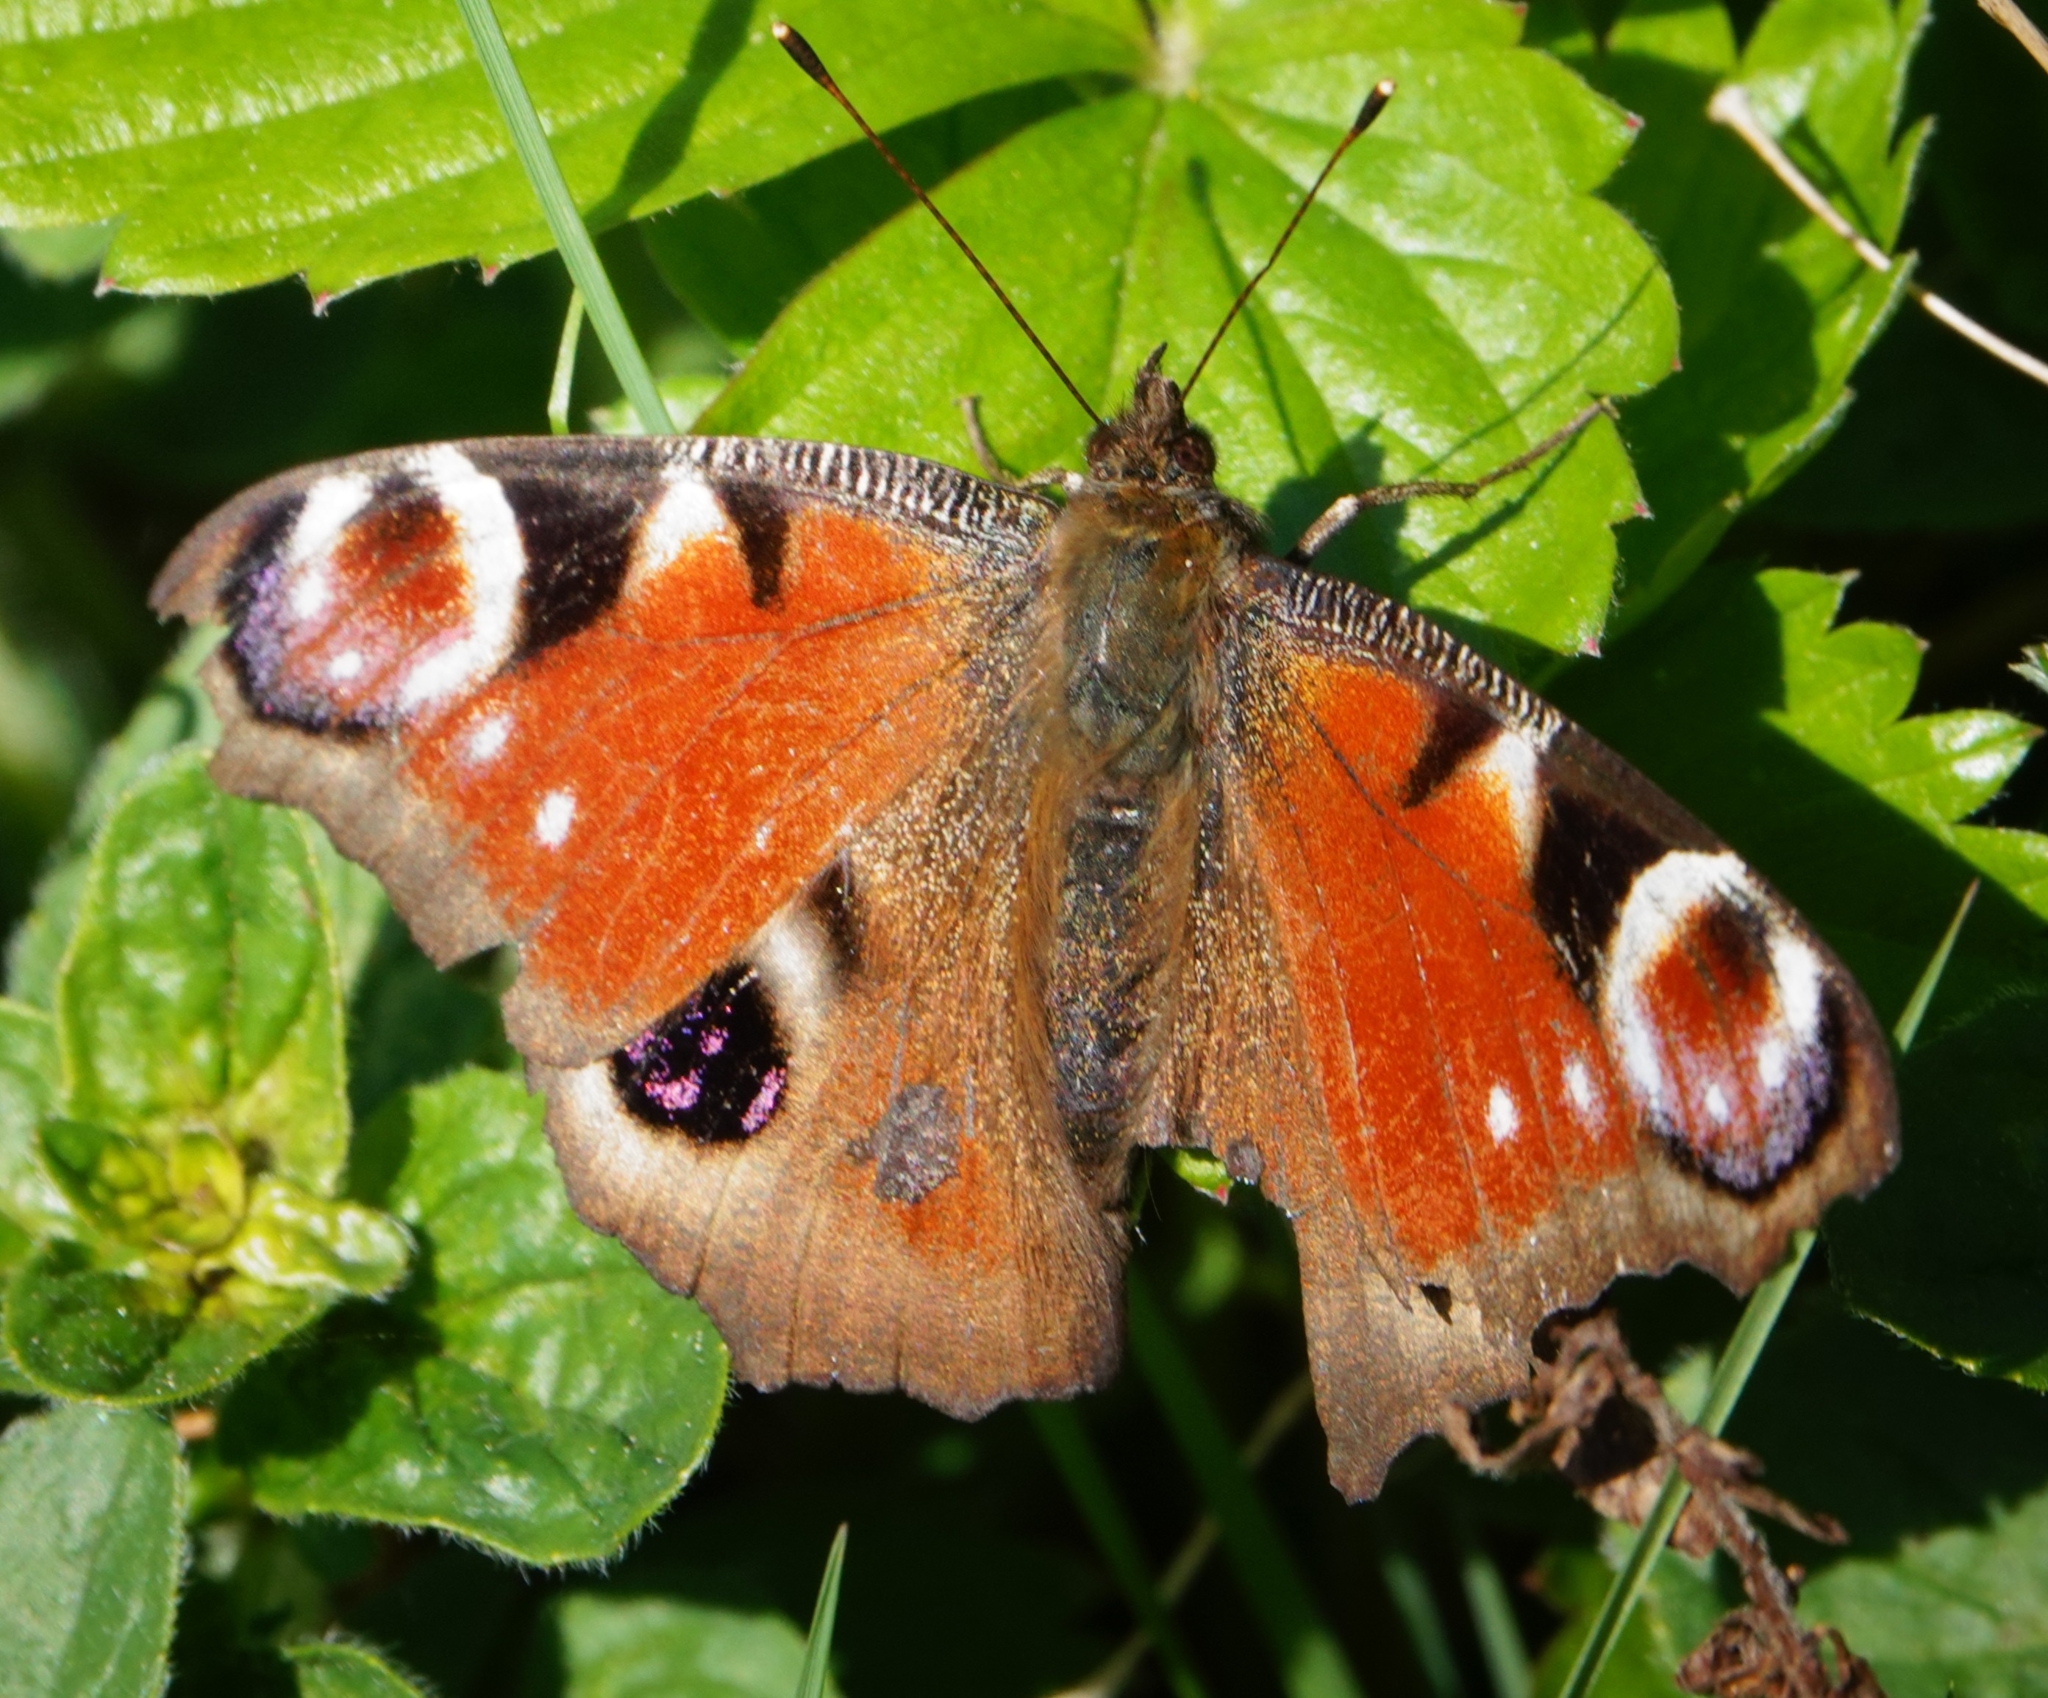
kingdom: Animalia
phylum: Arthropoda
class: Insecta
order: Lepidoptera
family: Nymphalidae
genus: Aglais
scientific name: Aglais io
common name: Peacock
